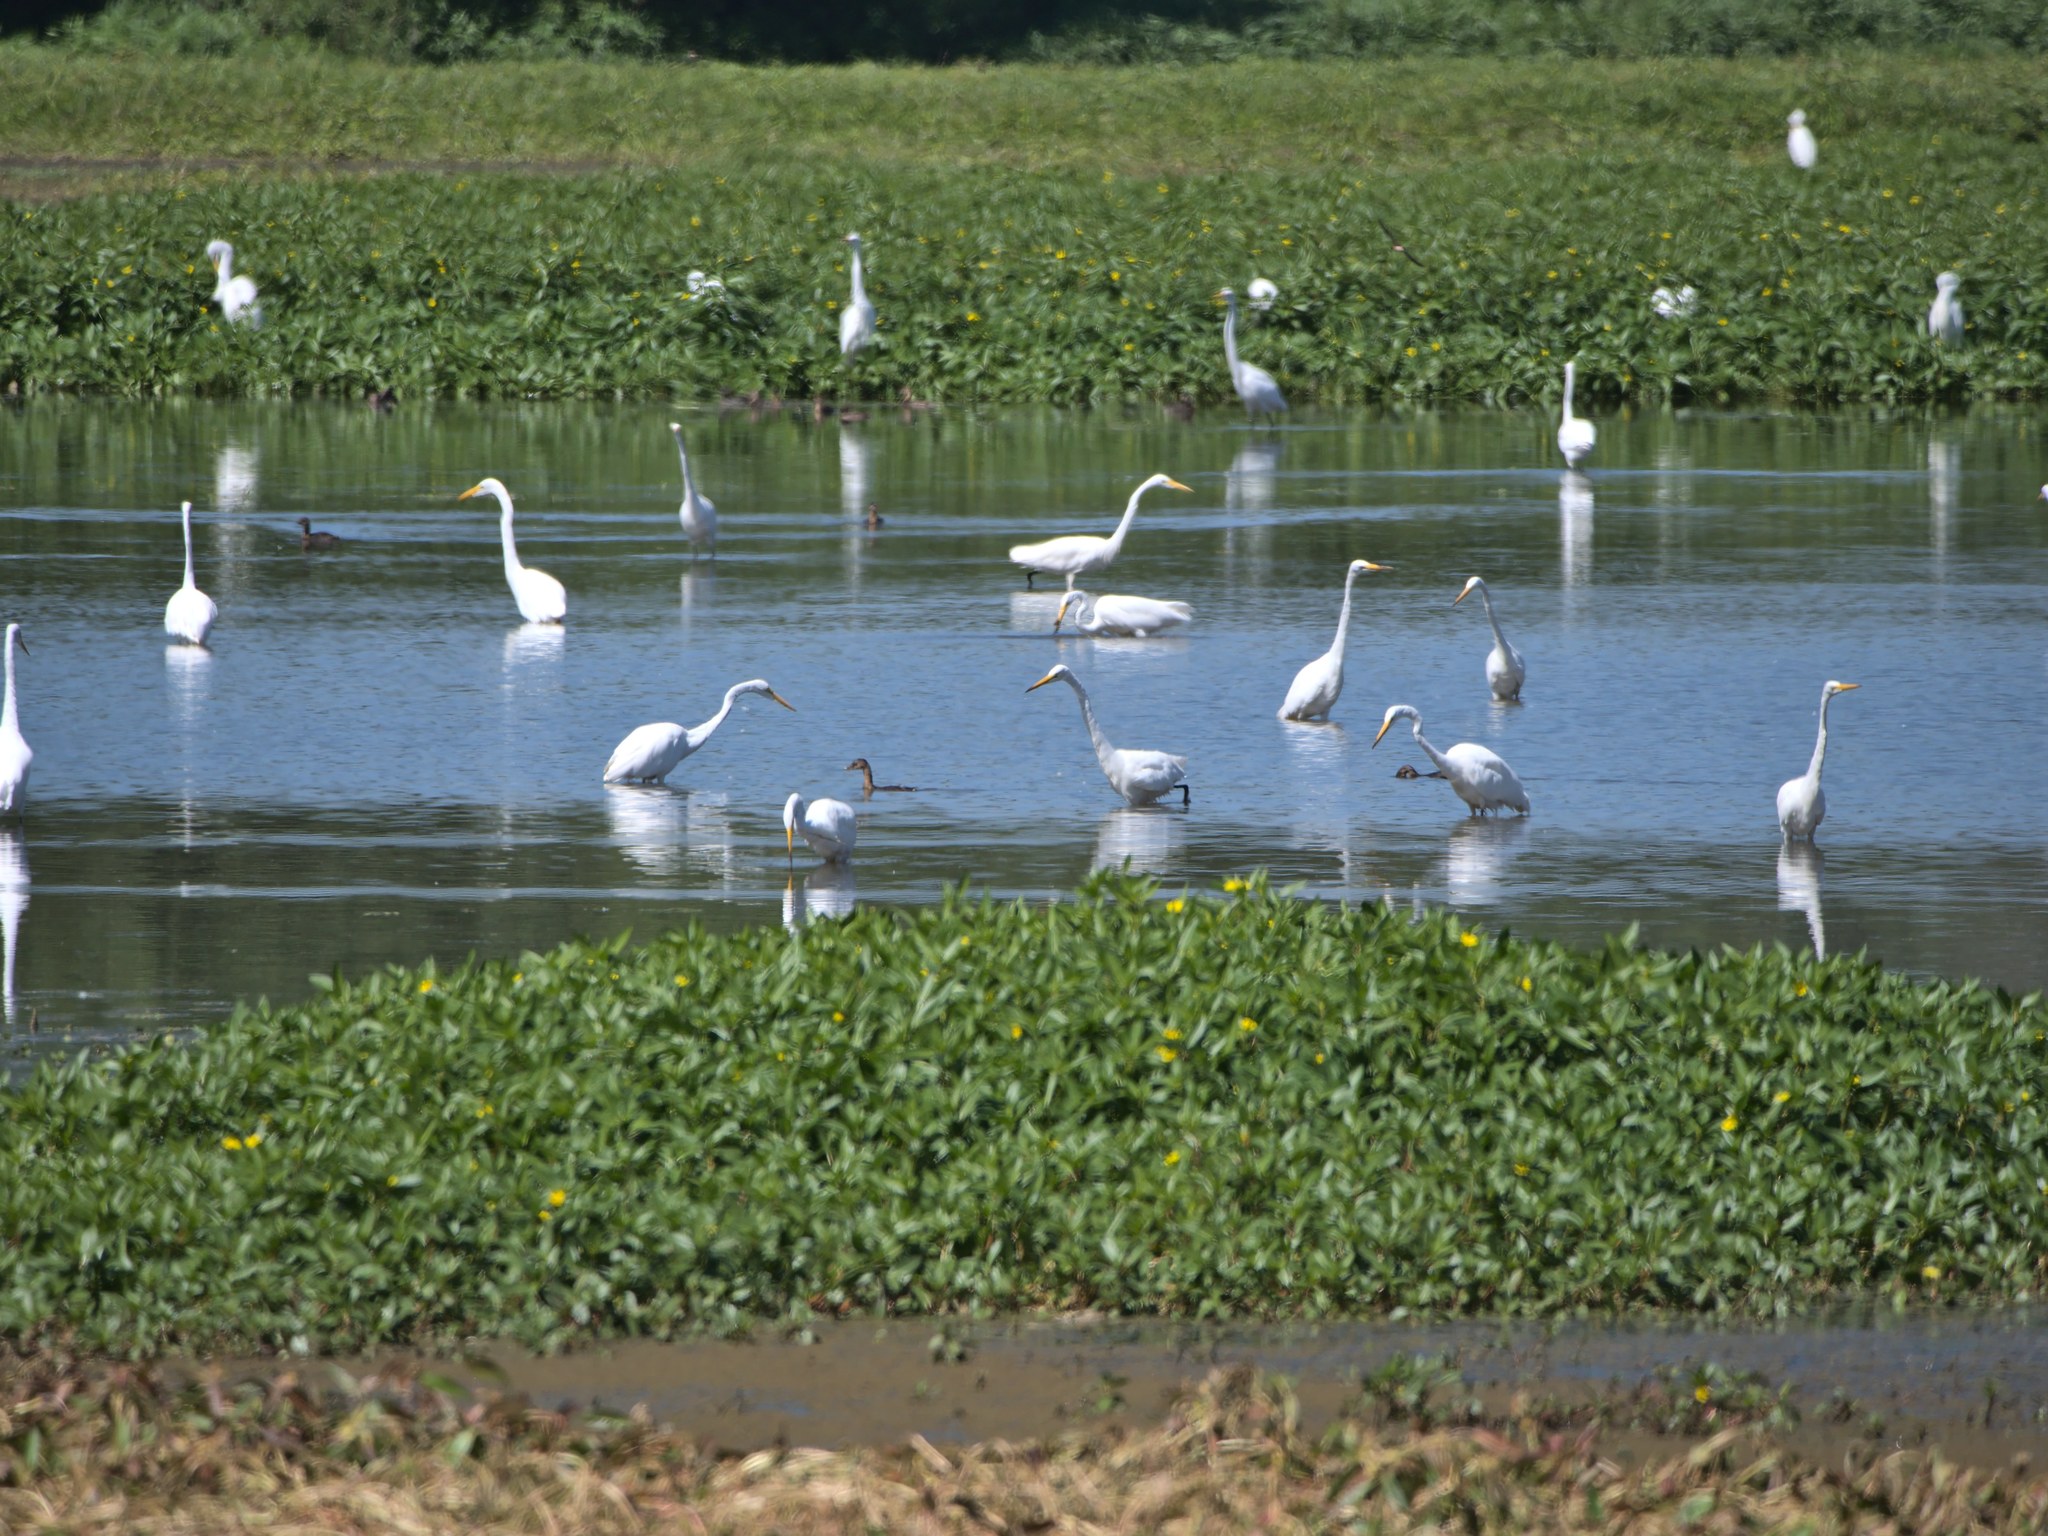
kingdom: Animalia
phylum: Chordata
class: Aves
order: Pelecaniformes
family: Ardeidae
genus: Ardea
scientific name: Ardea alba
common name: Great egret
